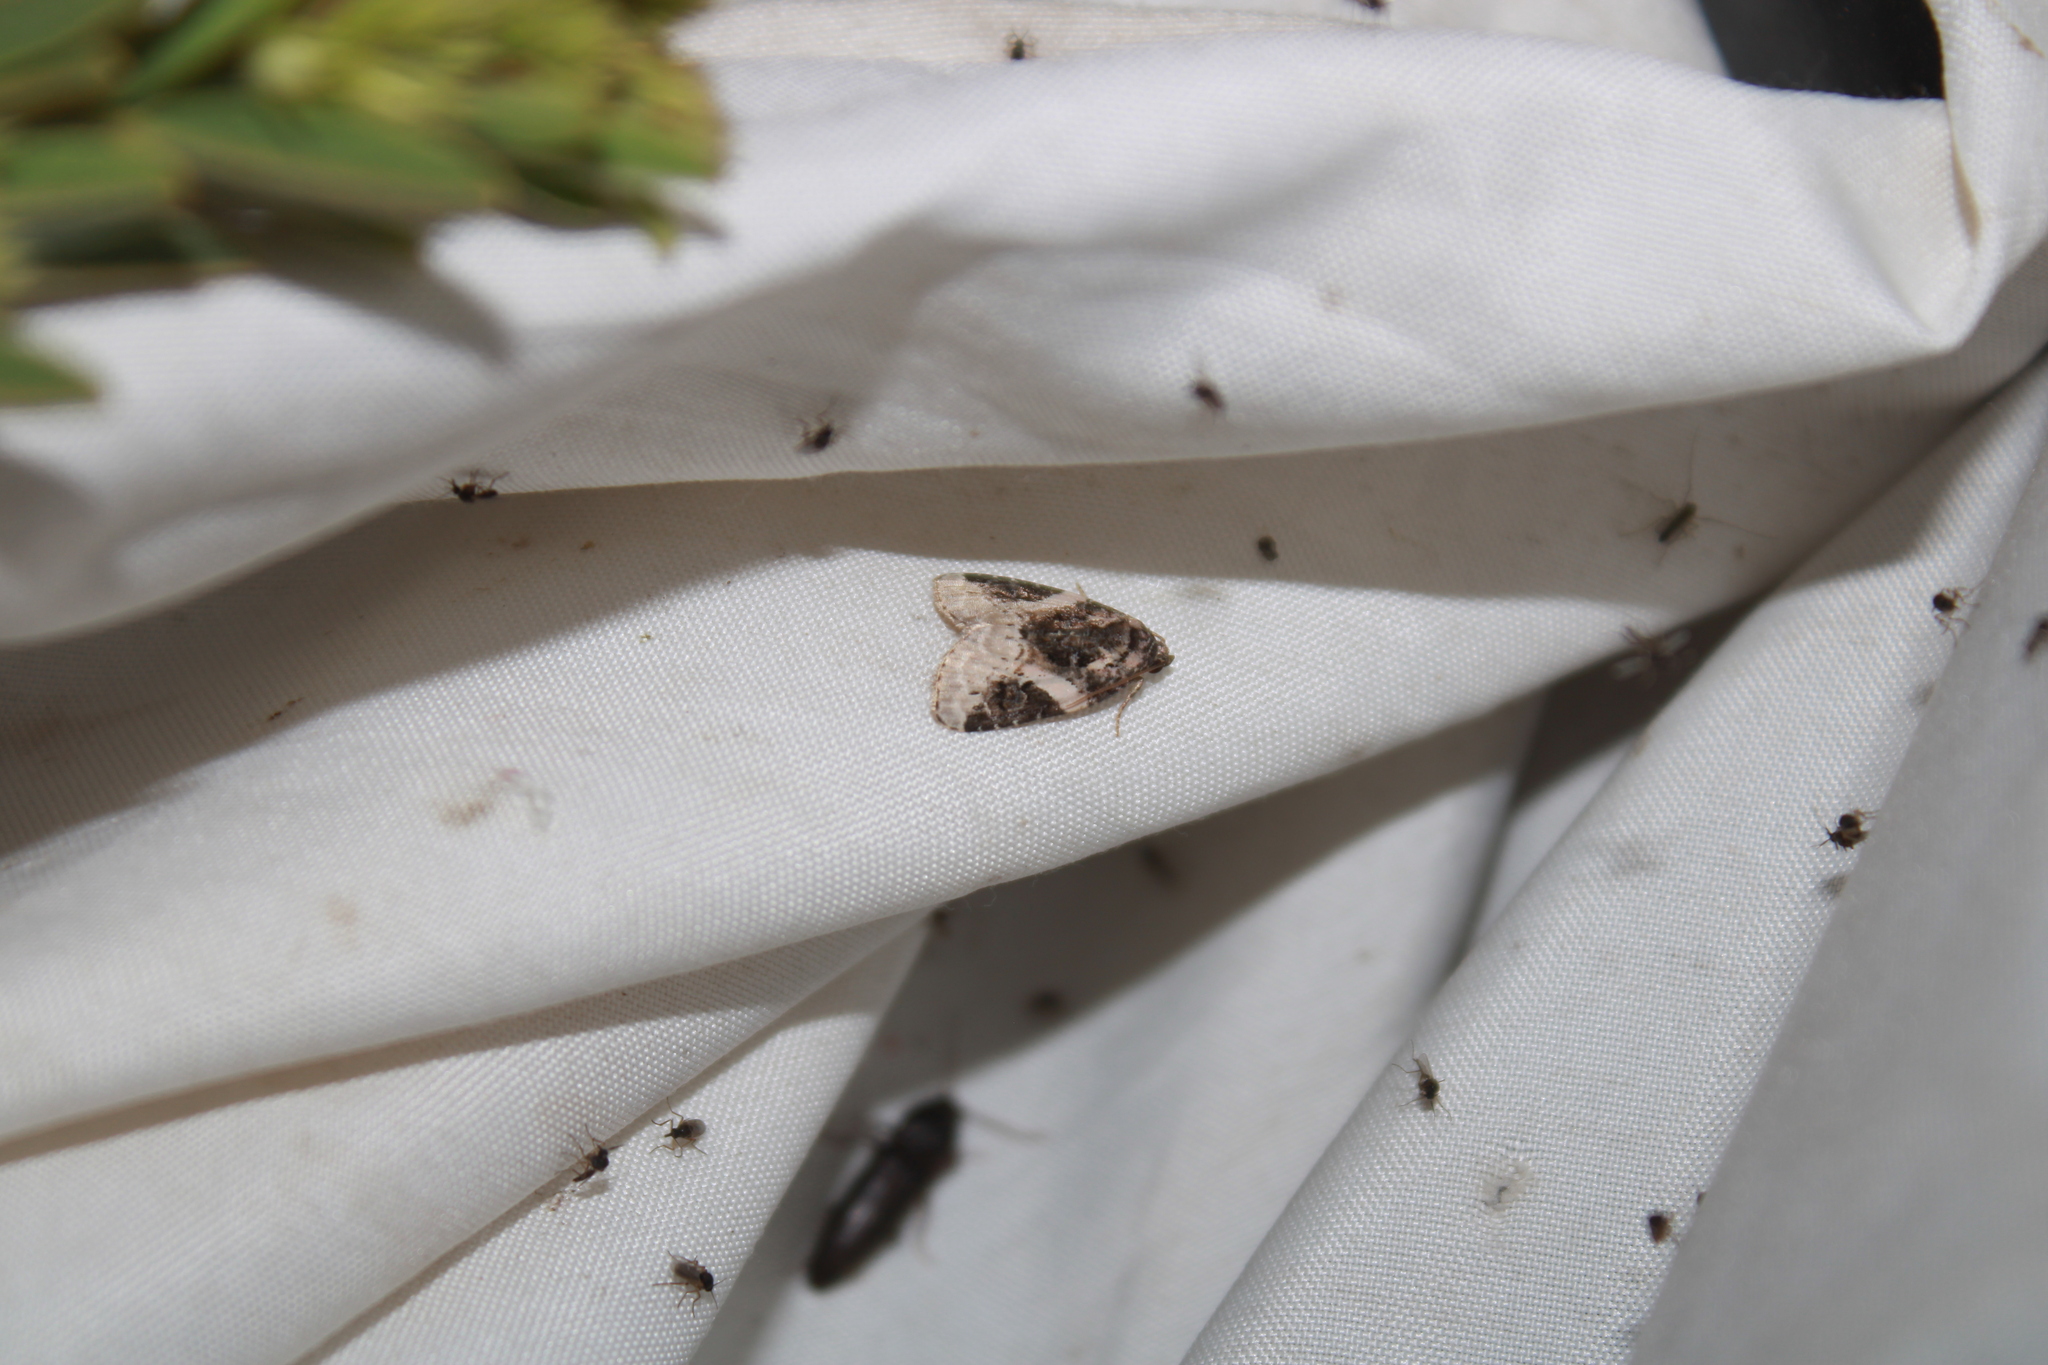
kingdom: Animalia
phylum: Arthropoda
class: Insecta
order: Lepidoptera
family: Noctuidae
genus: Pseudeustrotia
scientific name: Pseudeustrotia carneola
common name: Pink-barred lithacodia moth
